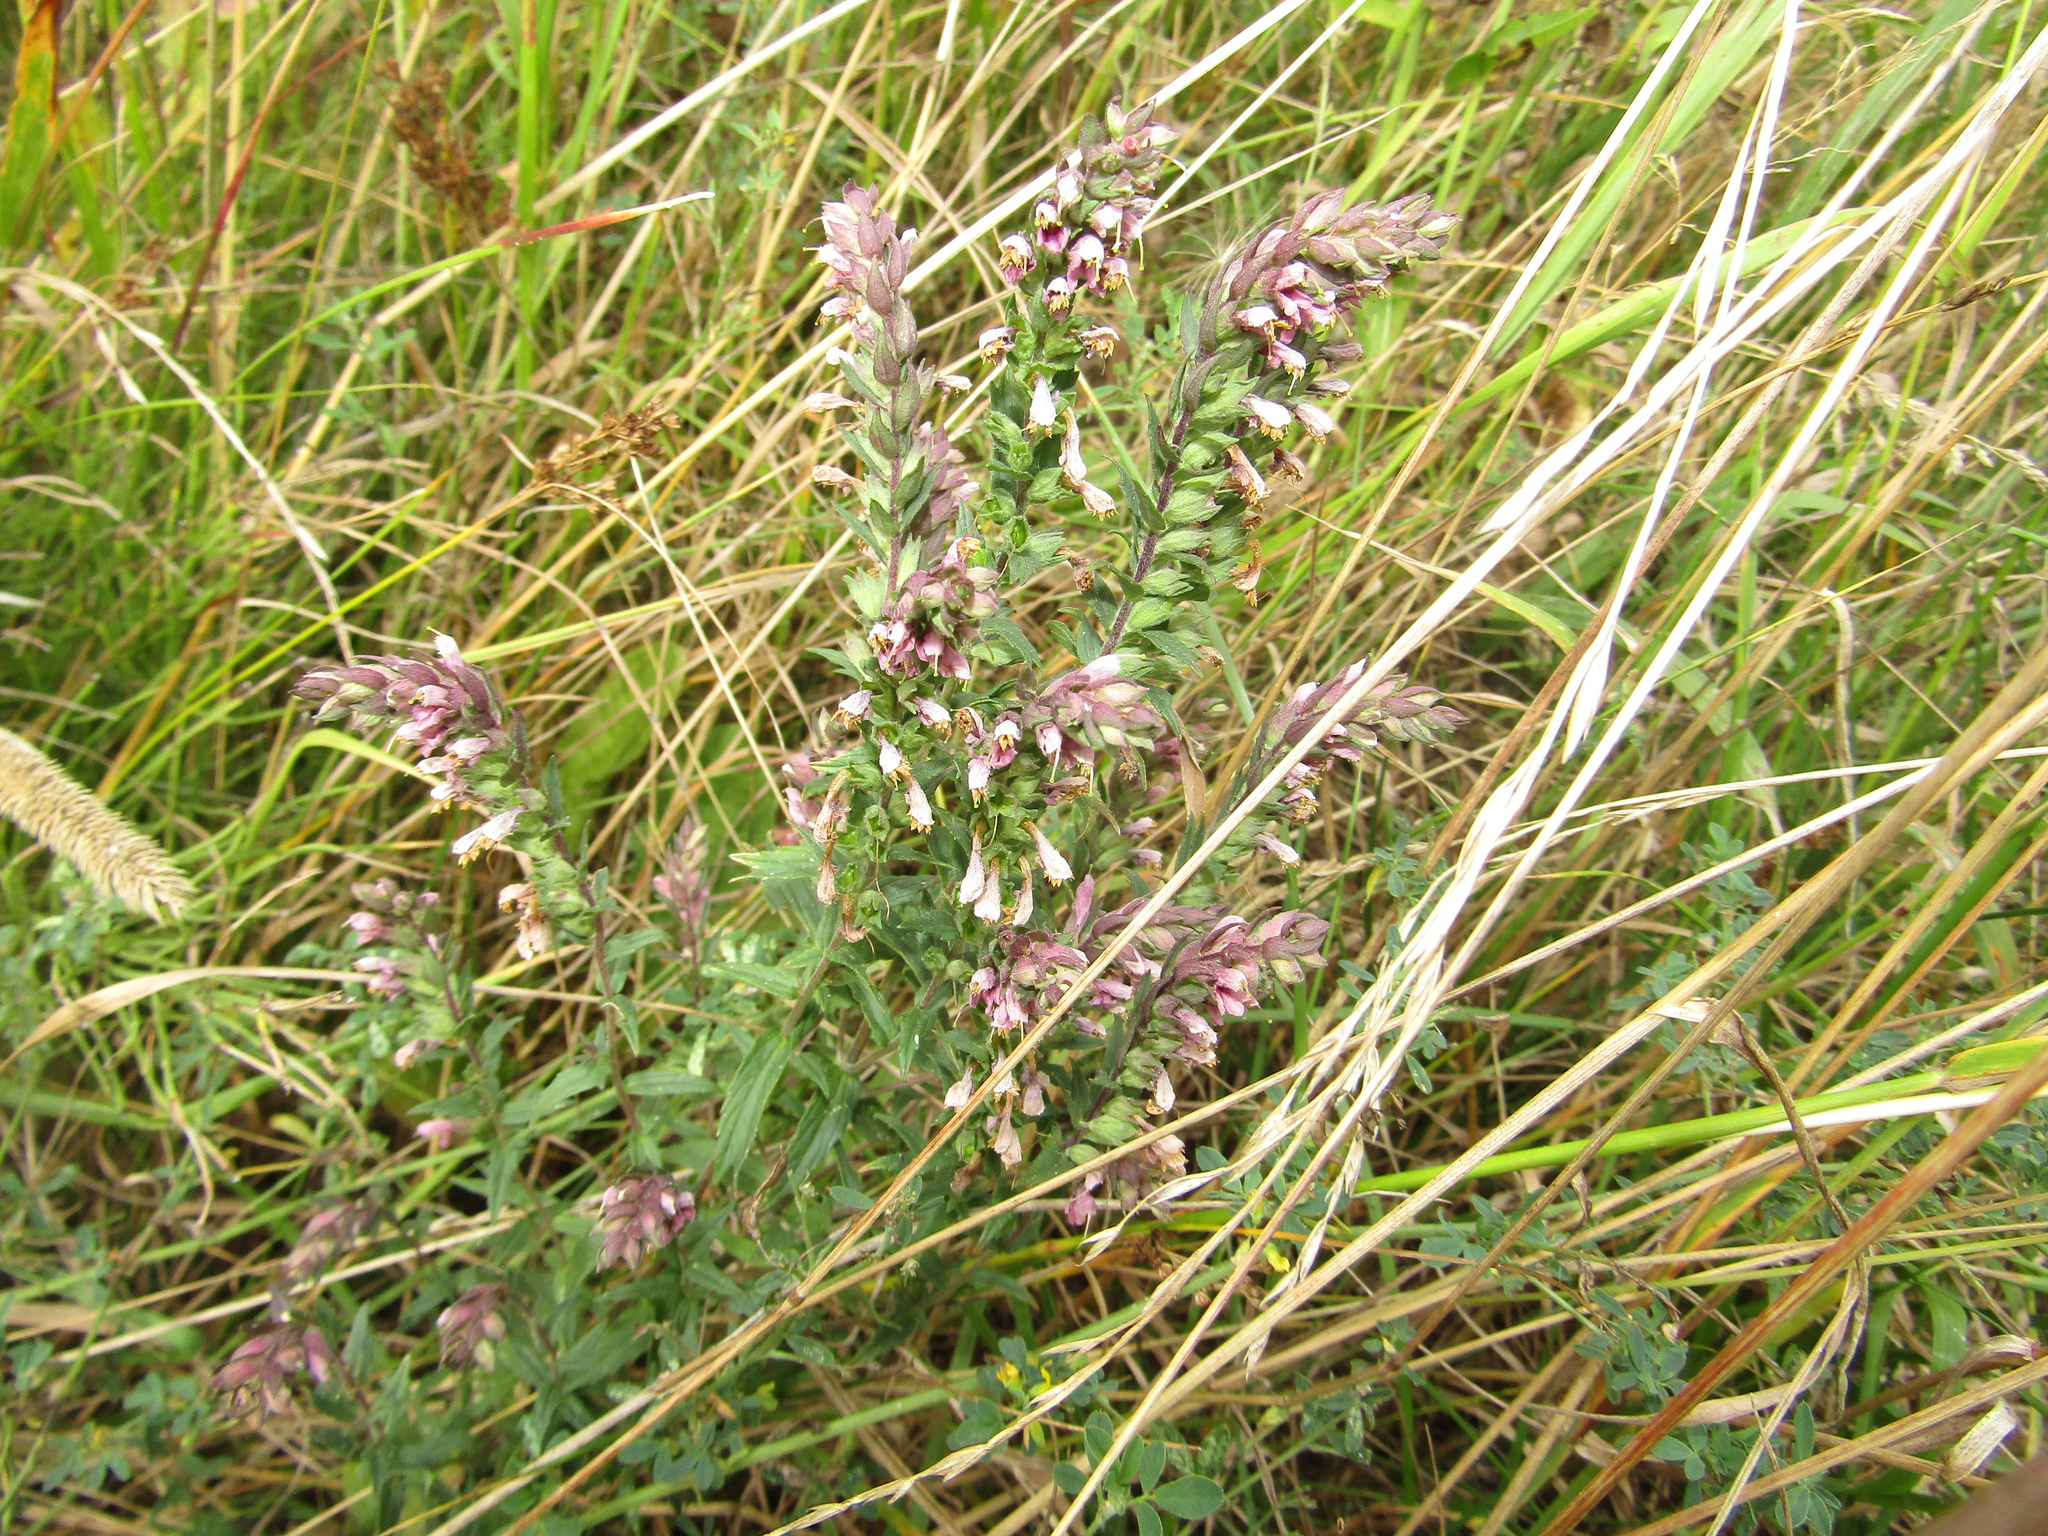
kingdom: Plantae
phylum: Tracheophyta
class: Magnoliopsida
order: Lamiales
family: Orobanchaceae
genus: Odontites
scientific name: Odontites vulgaris
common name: Broomrape
